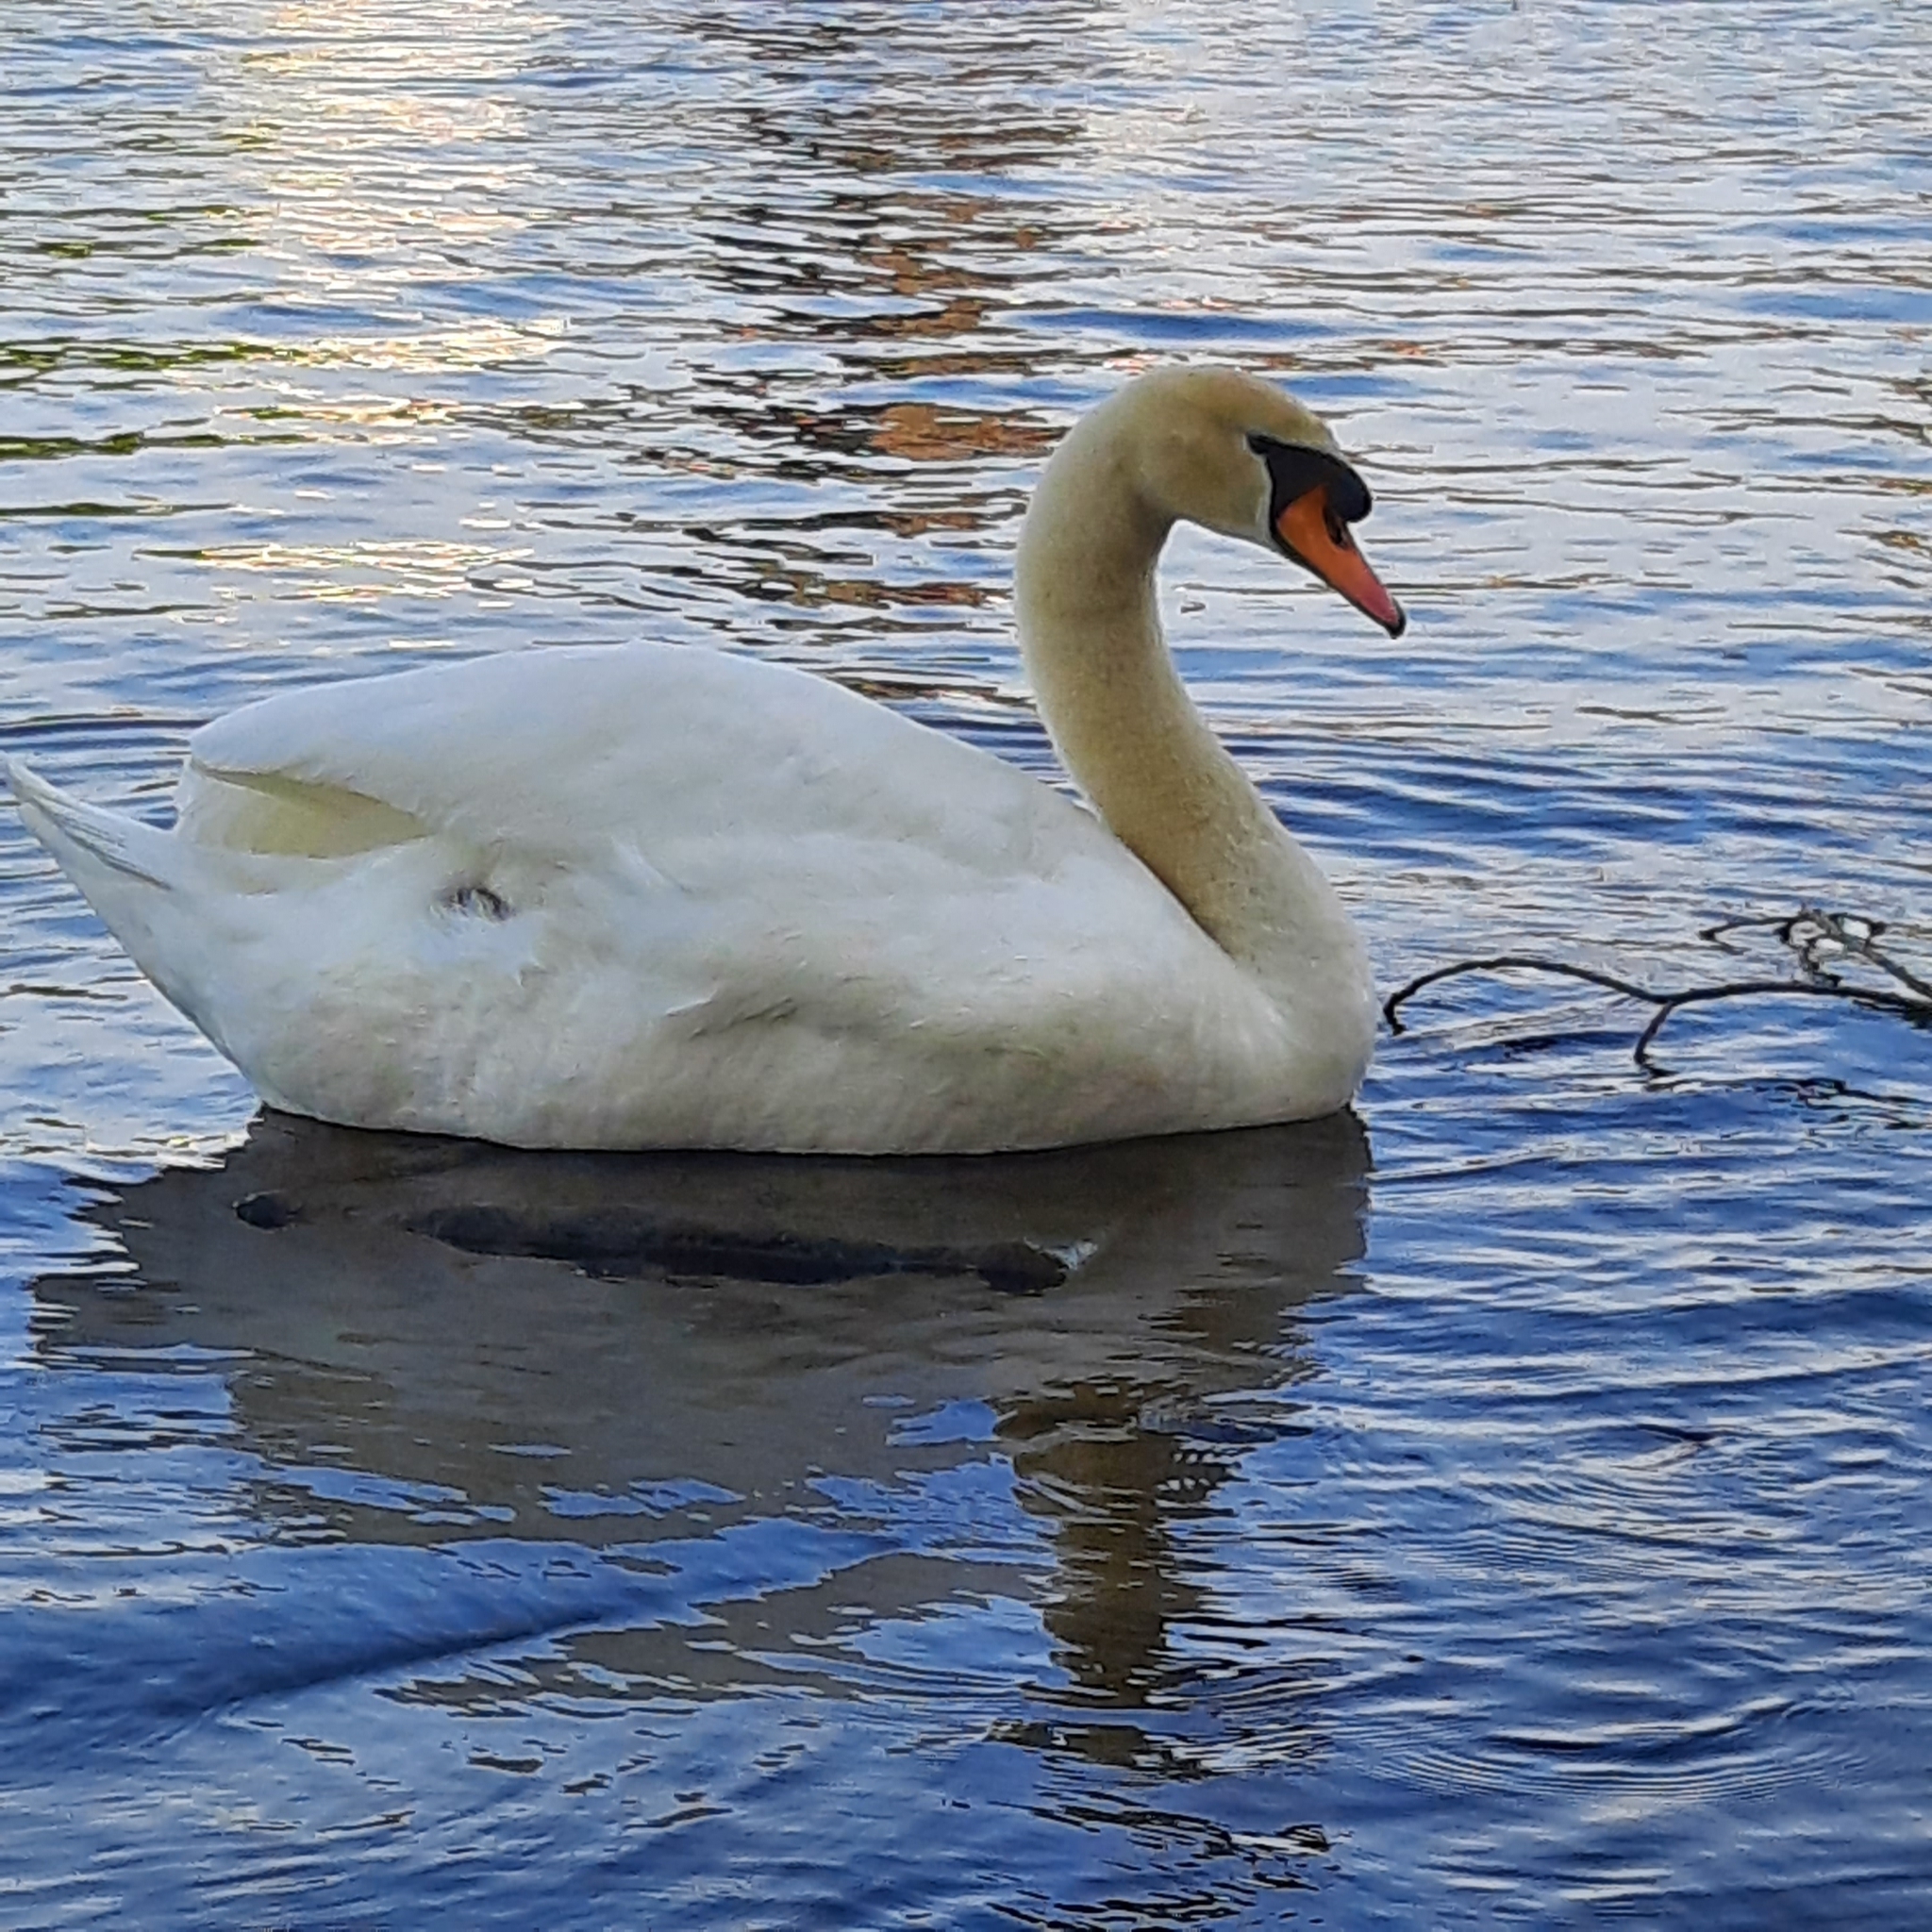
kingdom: Animalia
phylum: Chordata
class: Aves
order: Anseriformes
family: Anatidae
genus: Cygnus
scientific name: Cygnus olor
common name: Mute swan
